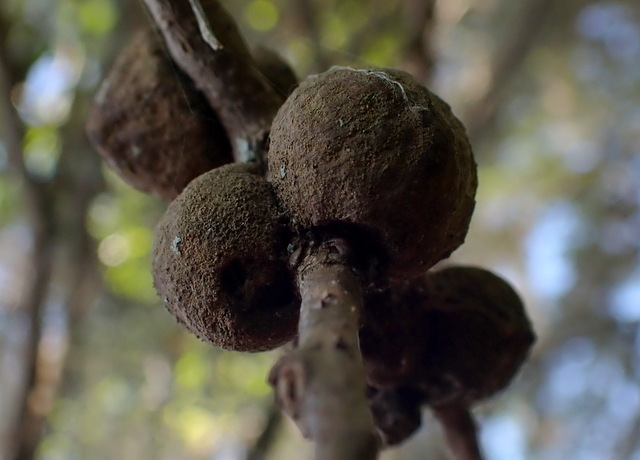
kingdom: Animalia
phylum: Arthropoda
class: Insecta
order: Hymenoptera
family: Cynipidae
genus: Disholcaspis
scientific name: Disholcaspis
